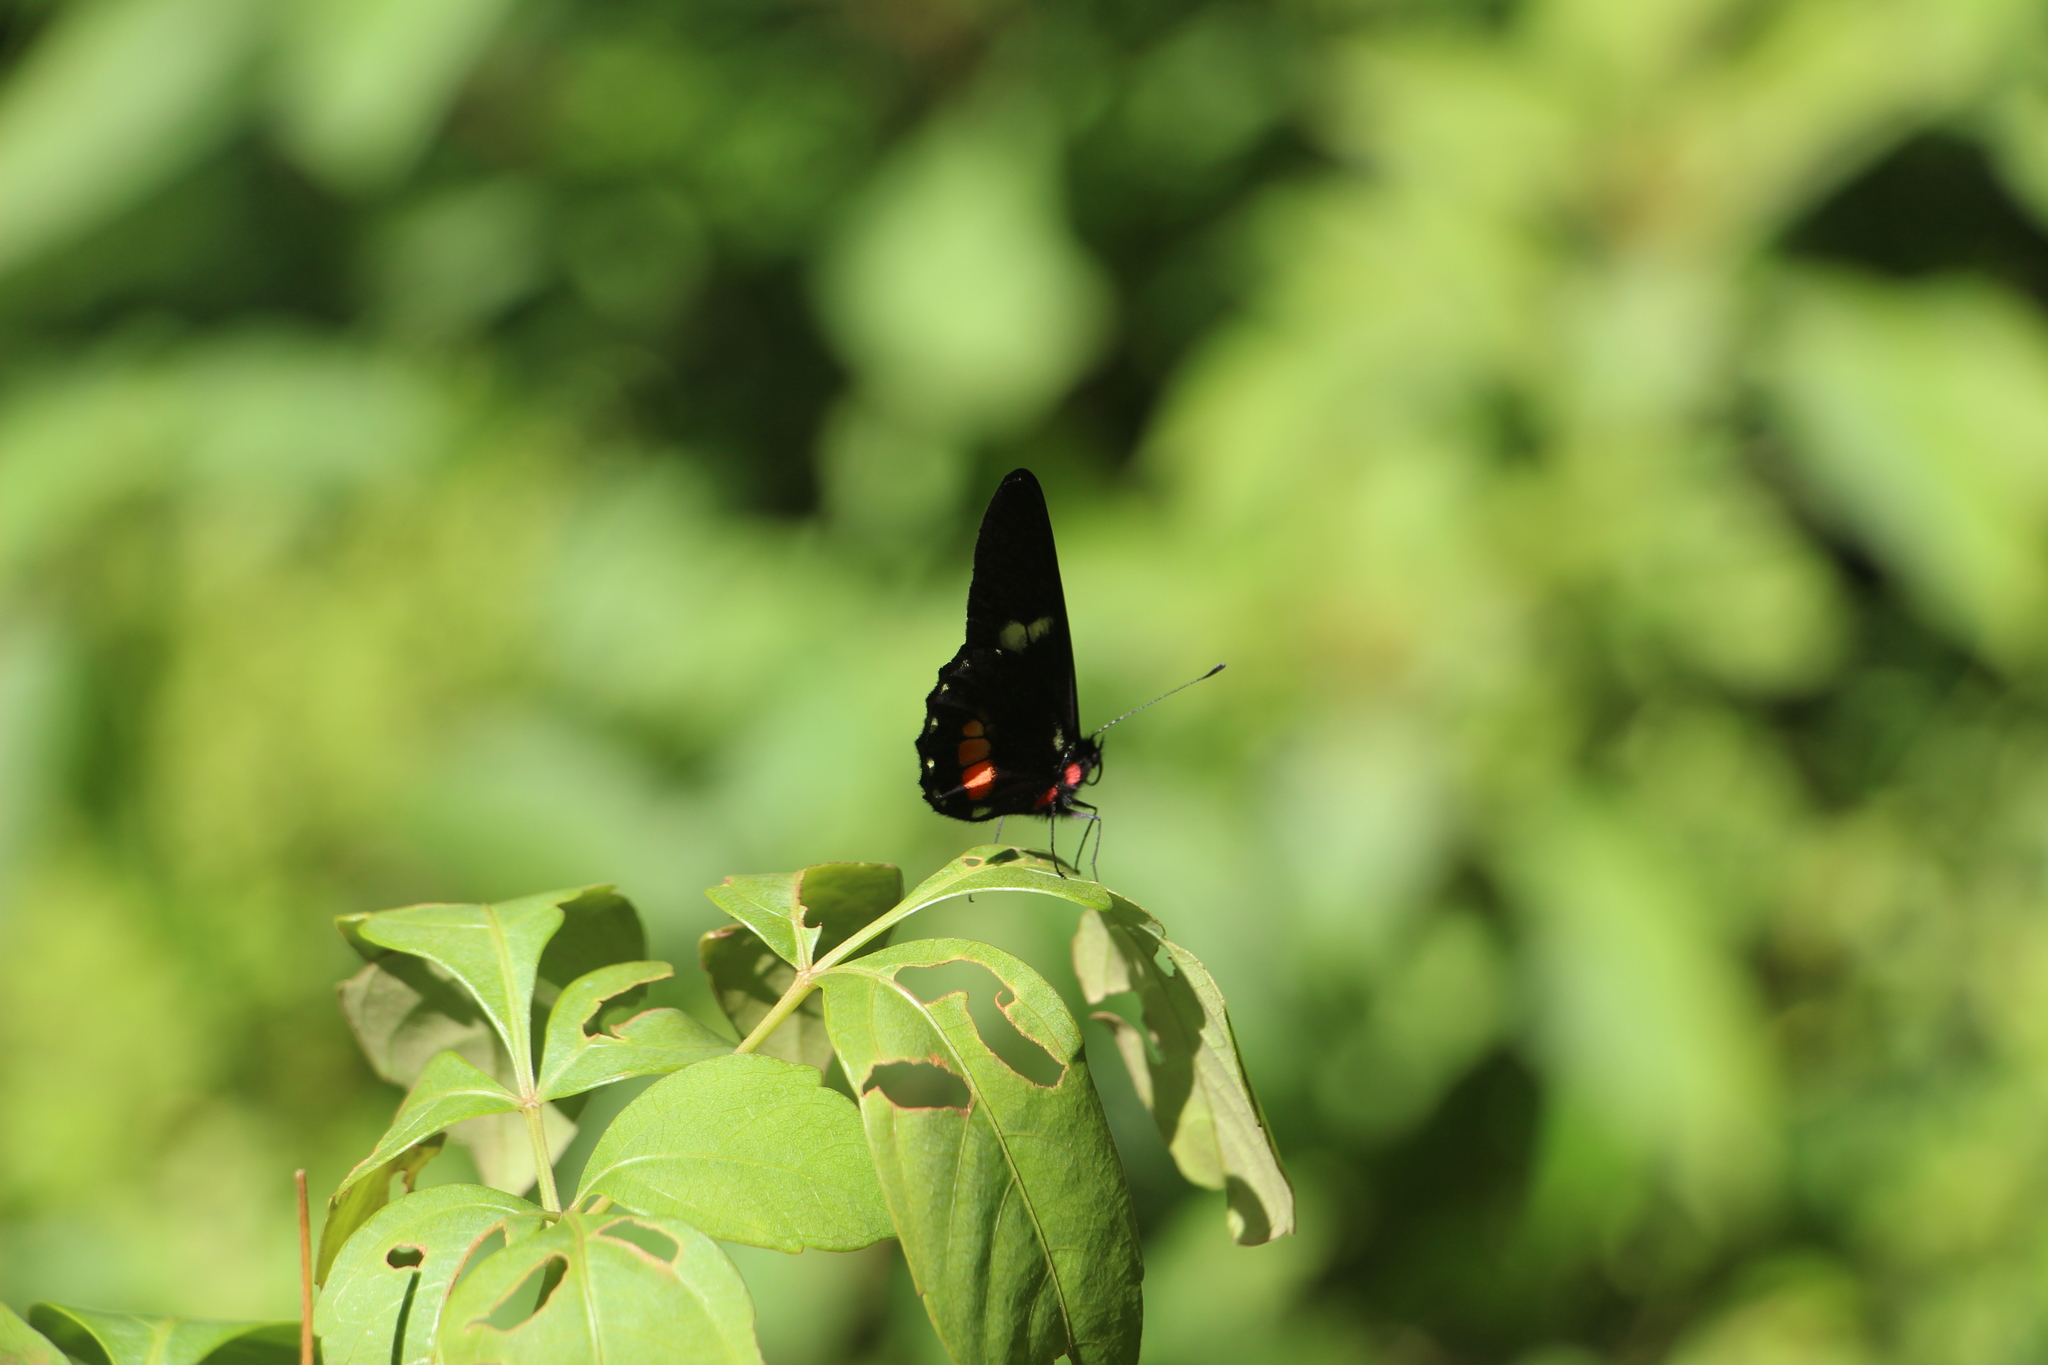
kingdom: Animalia
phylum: Arthropoda
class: Insecta
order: Lepidoptera
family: Pieridae
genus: Archonias
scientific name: Archonias brassolis
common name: Cattleheart white
